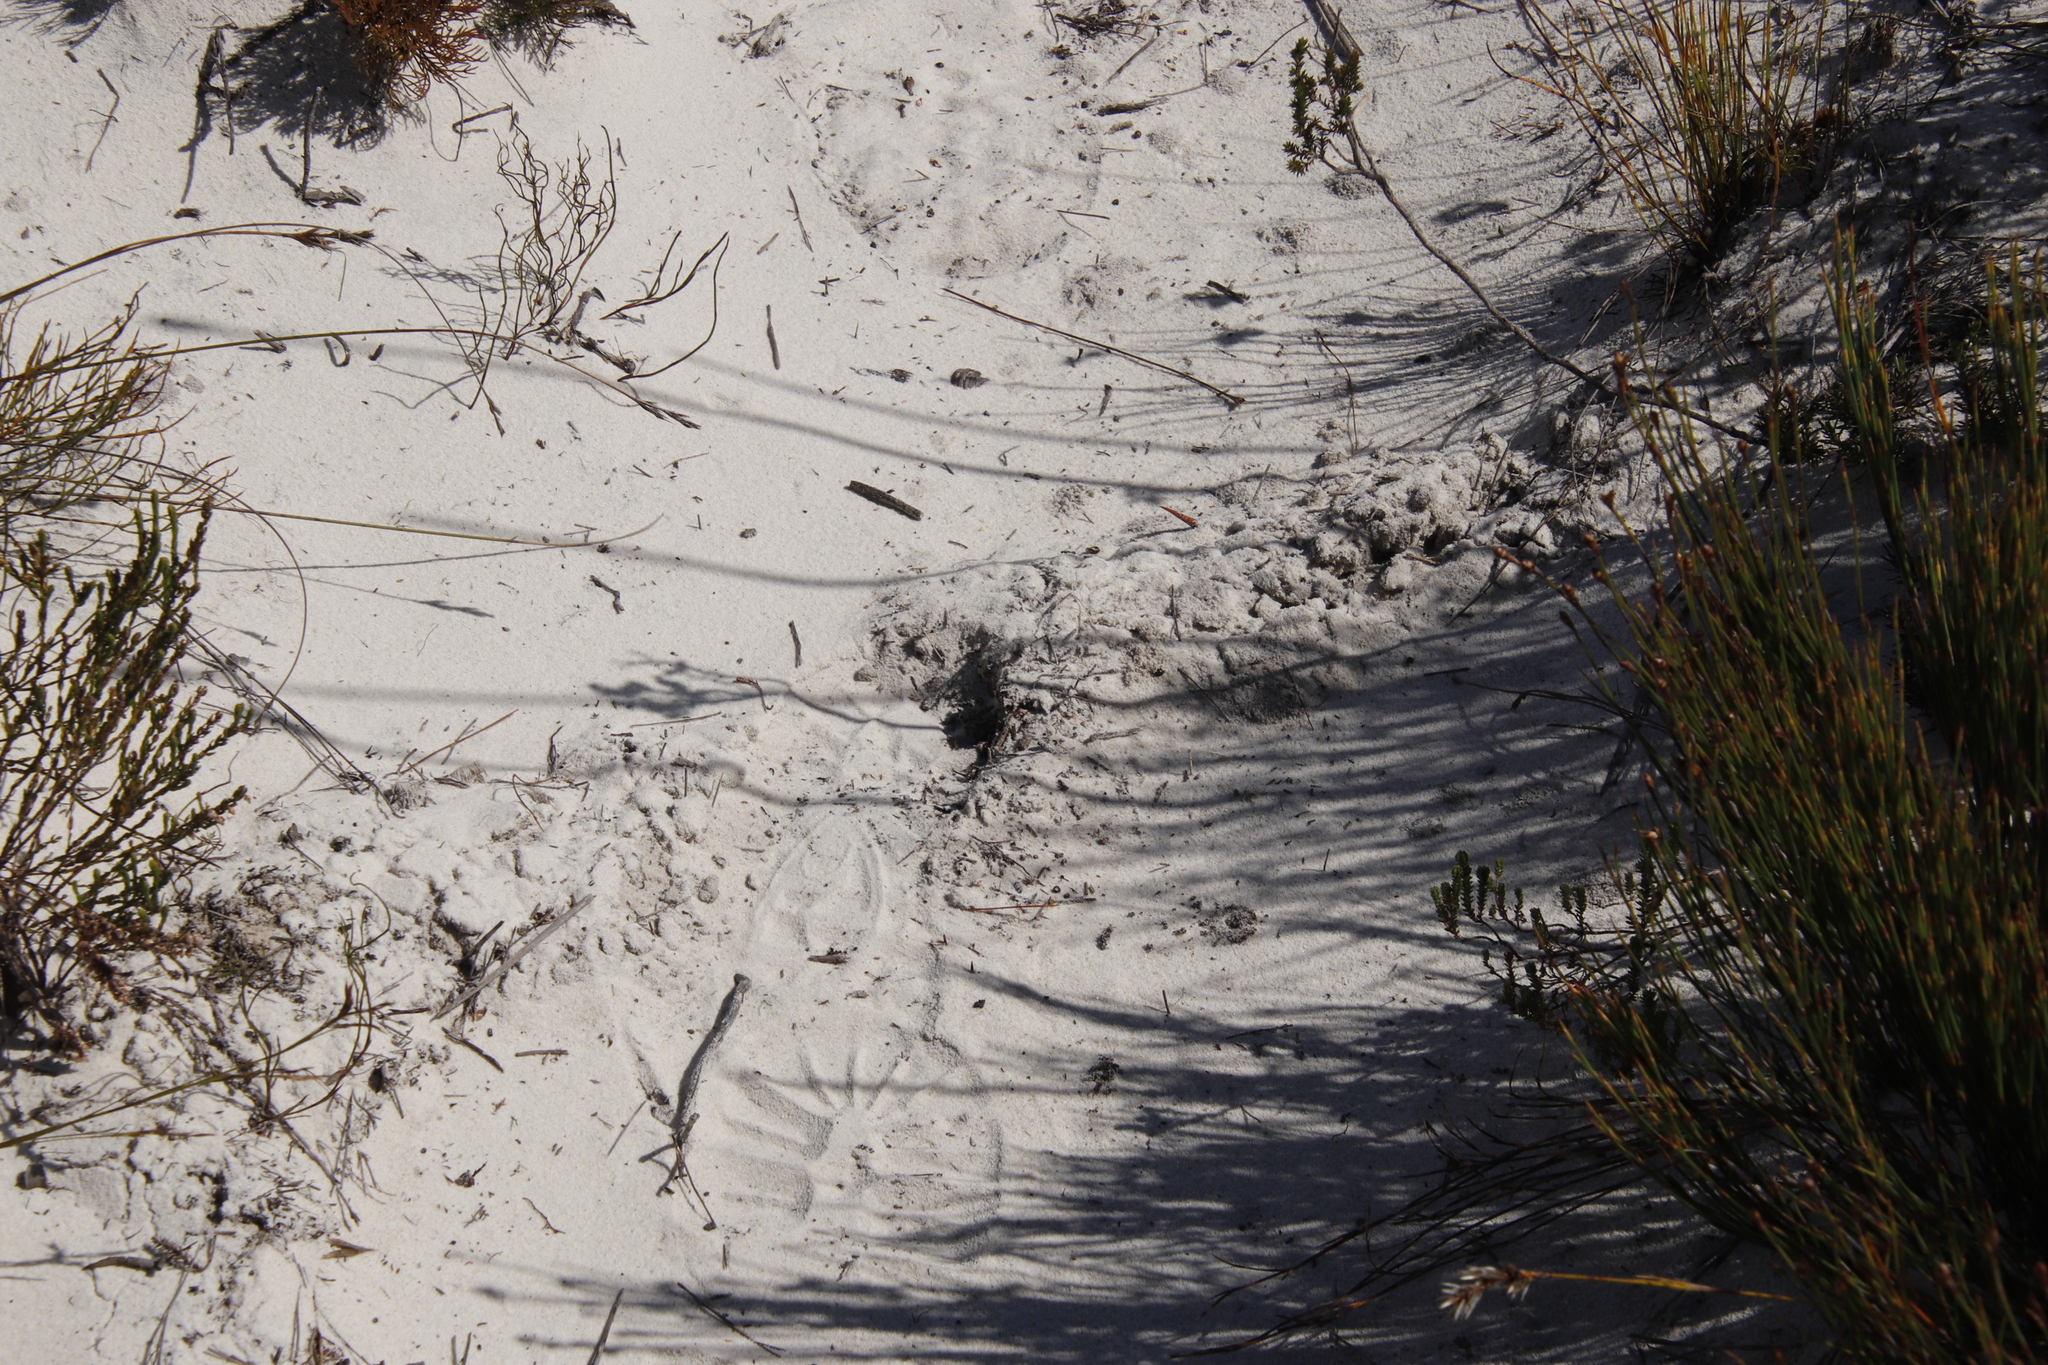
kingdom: Animalia
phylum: Chordata
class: Mammalia
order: Afrosoricida
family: Chrysochloridae
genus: Chrysochloris
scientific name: Chrysochloris asiatica
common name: Cape golden mole
